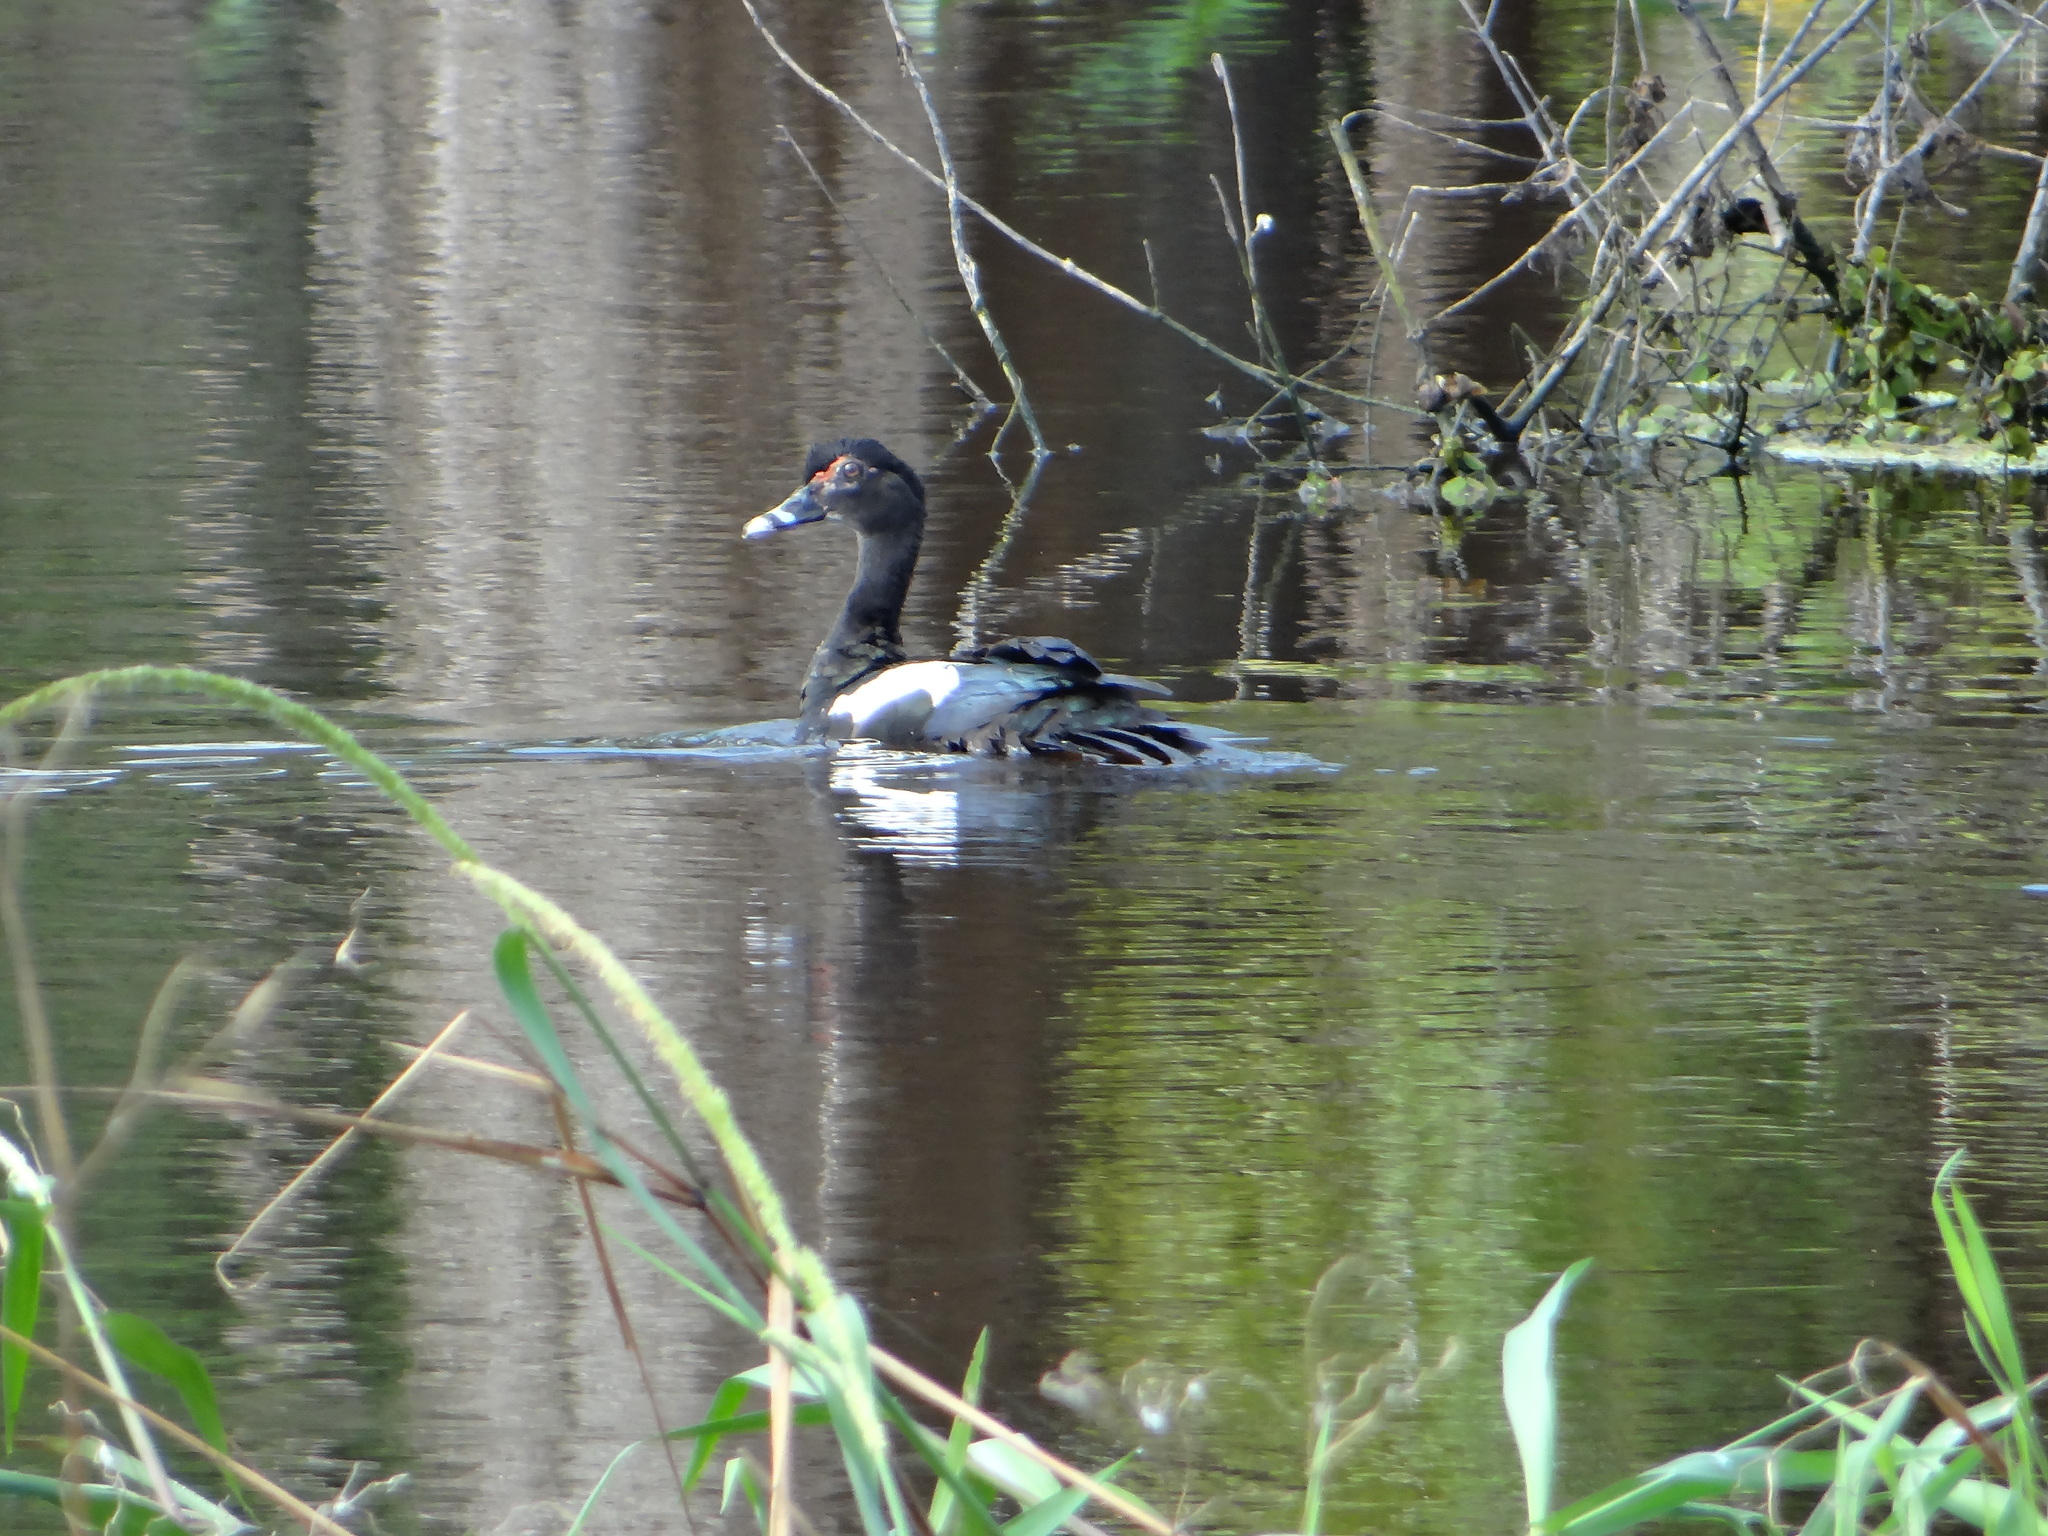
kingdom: Animalia
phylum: Chordata
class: Aves
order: Anseriformes
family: Anatidae
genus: Cairina
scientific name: Cairina moschata
